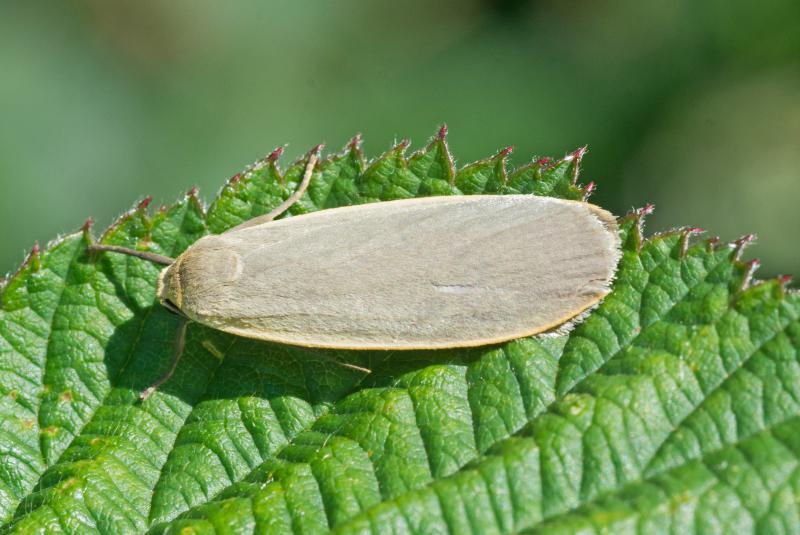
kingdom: Animalia
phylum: Arthropoda
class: Insecta
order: Lepidoptera
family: Erebidae
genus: Collita
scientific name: Collita griseola
